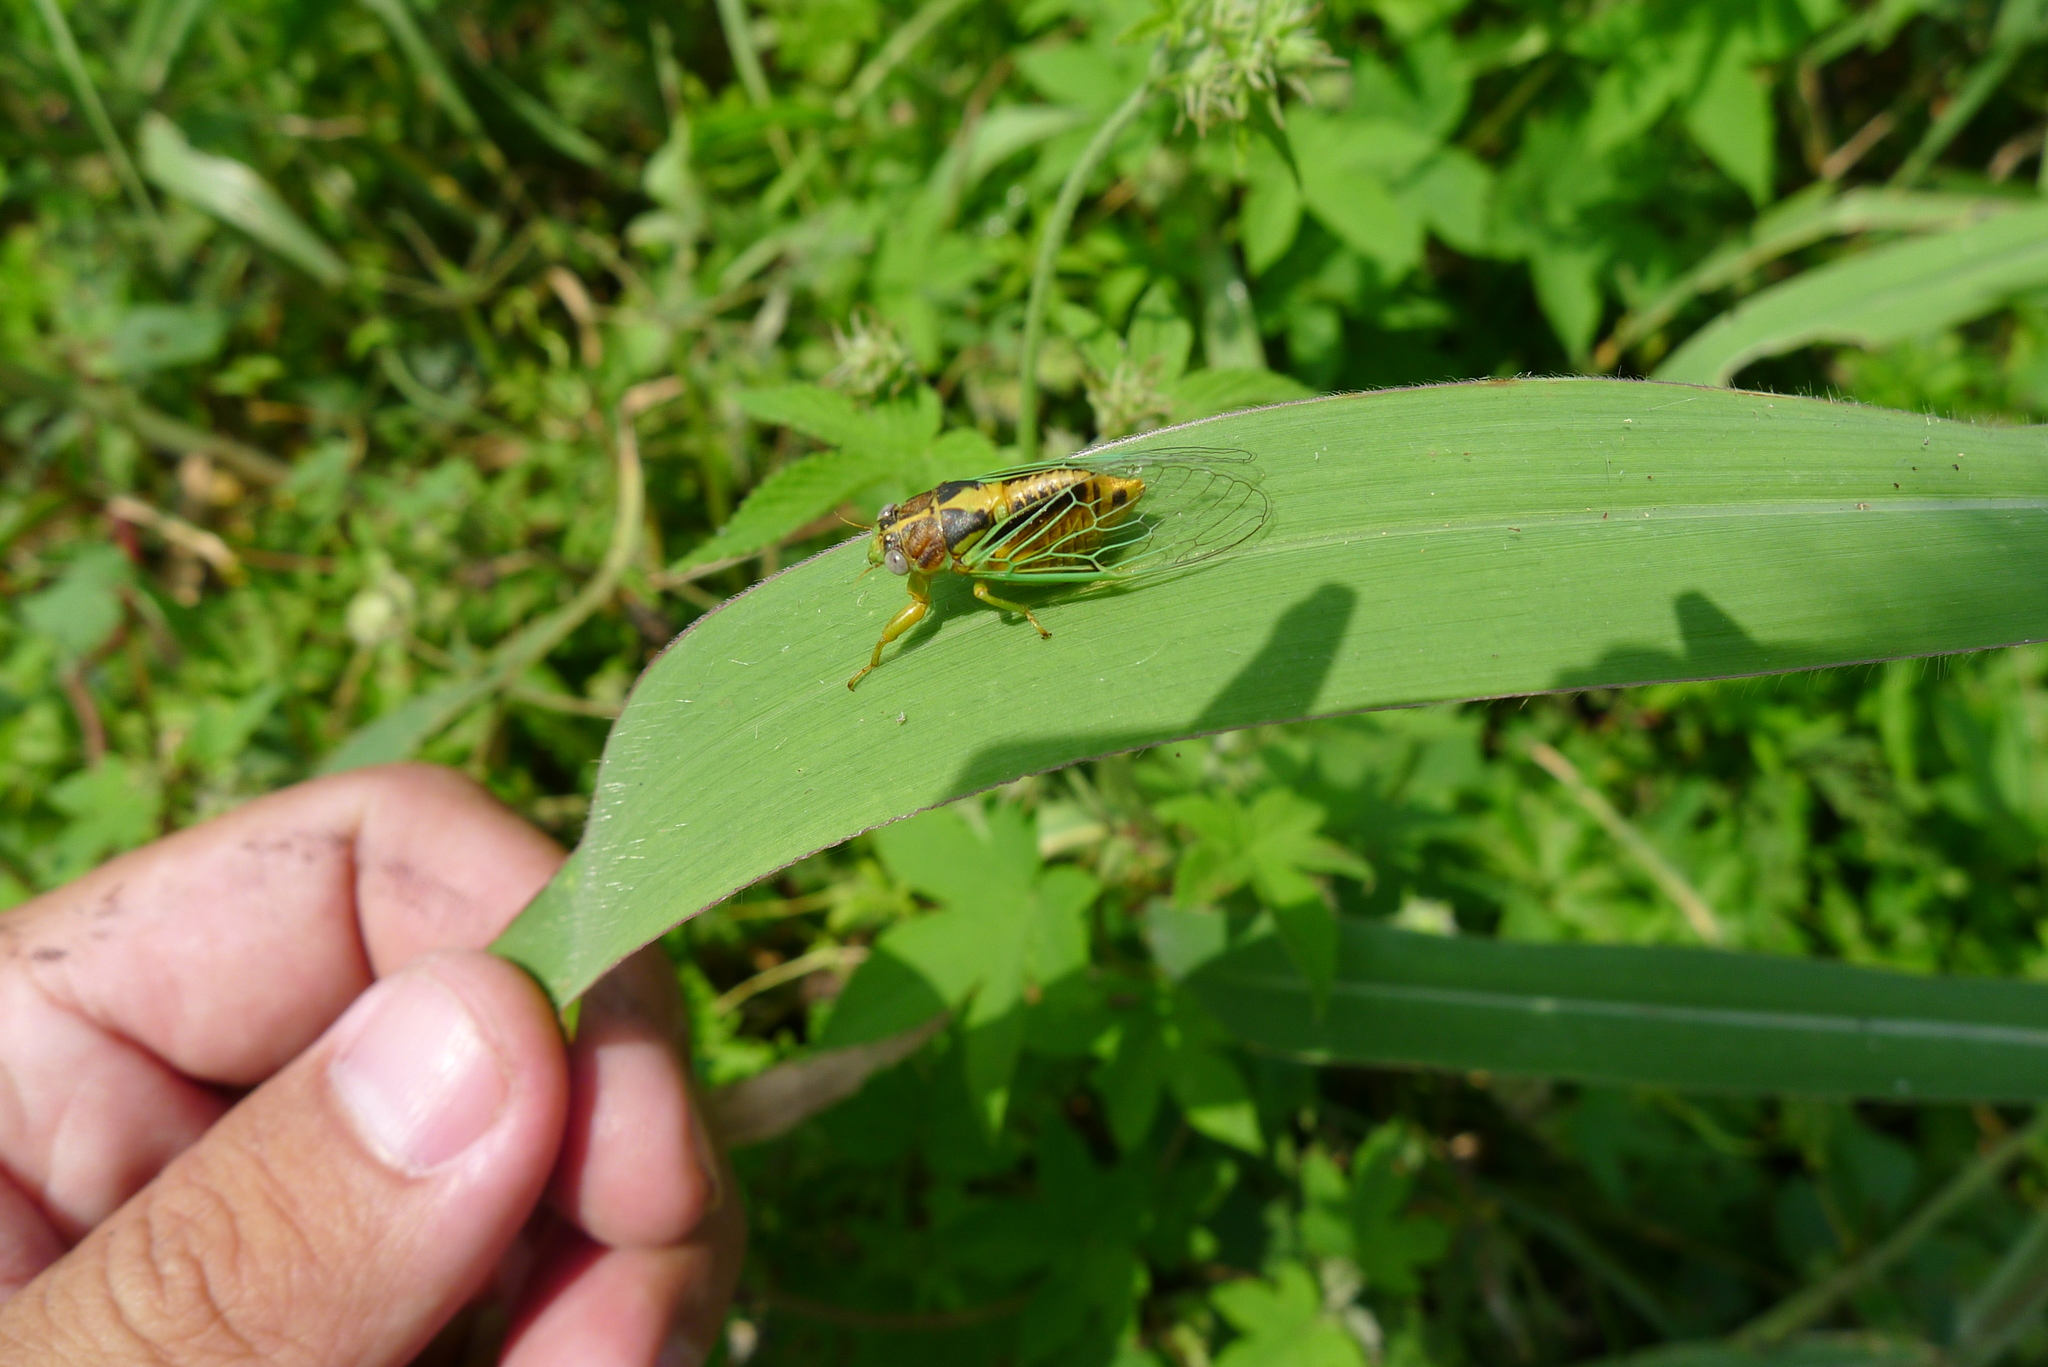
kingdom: Animalia
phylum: Arthropoda
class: Insecta
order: Hemiptera
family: Cicadidae
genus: Mogannia
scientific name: Mogannia hebes
